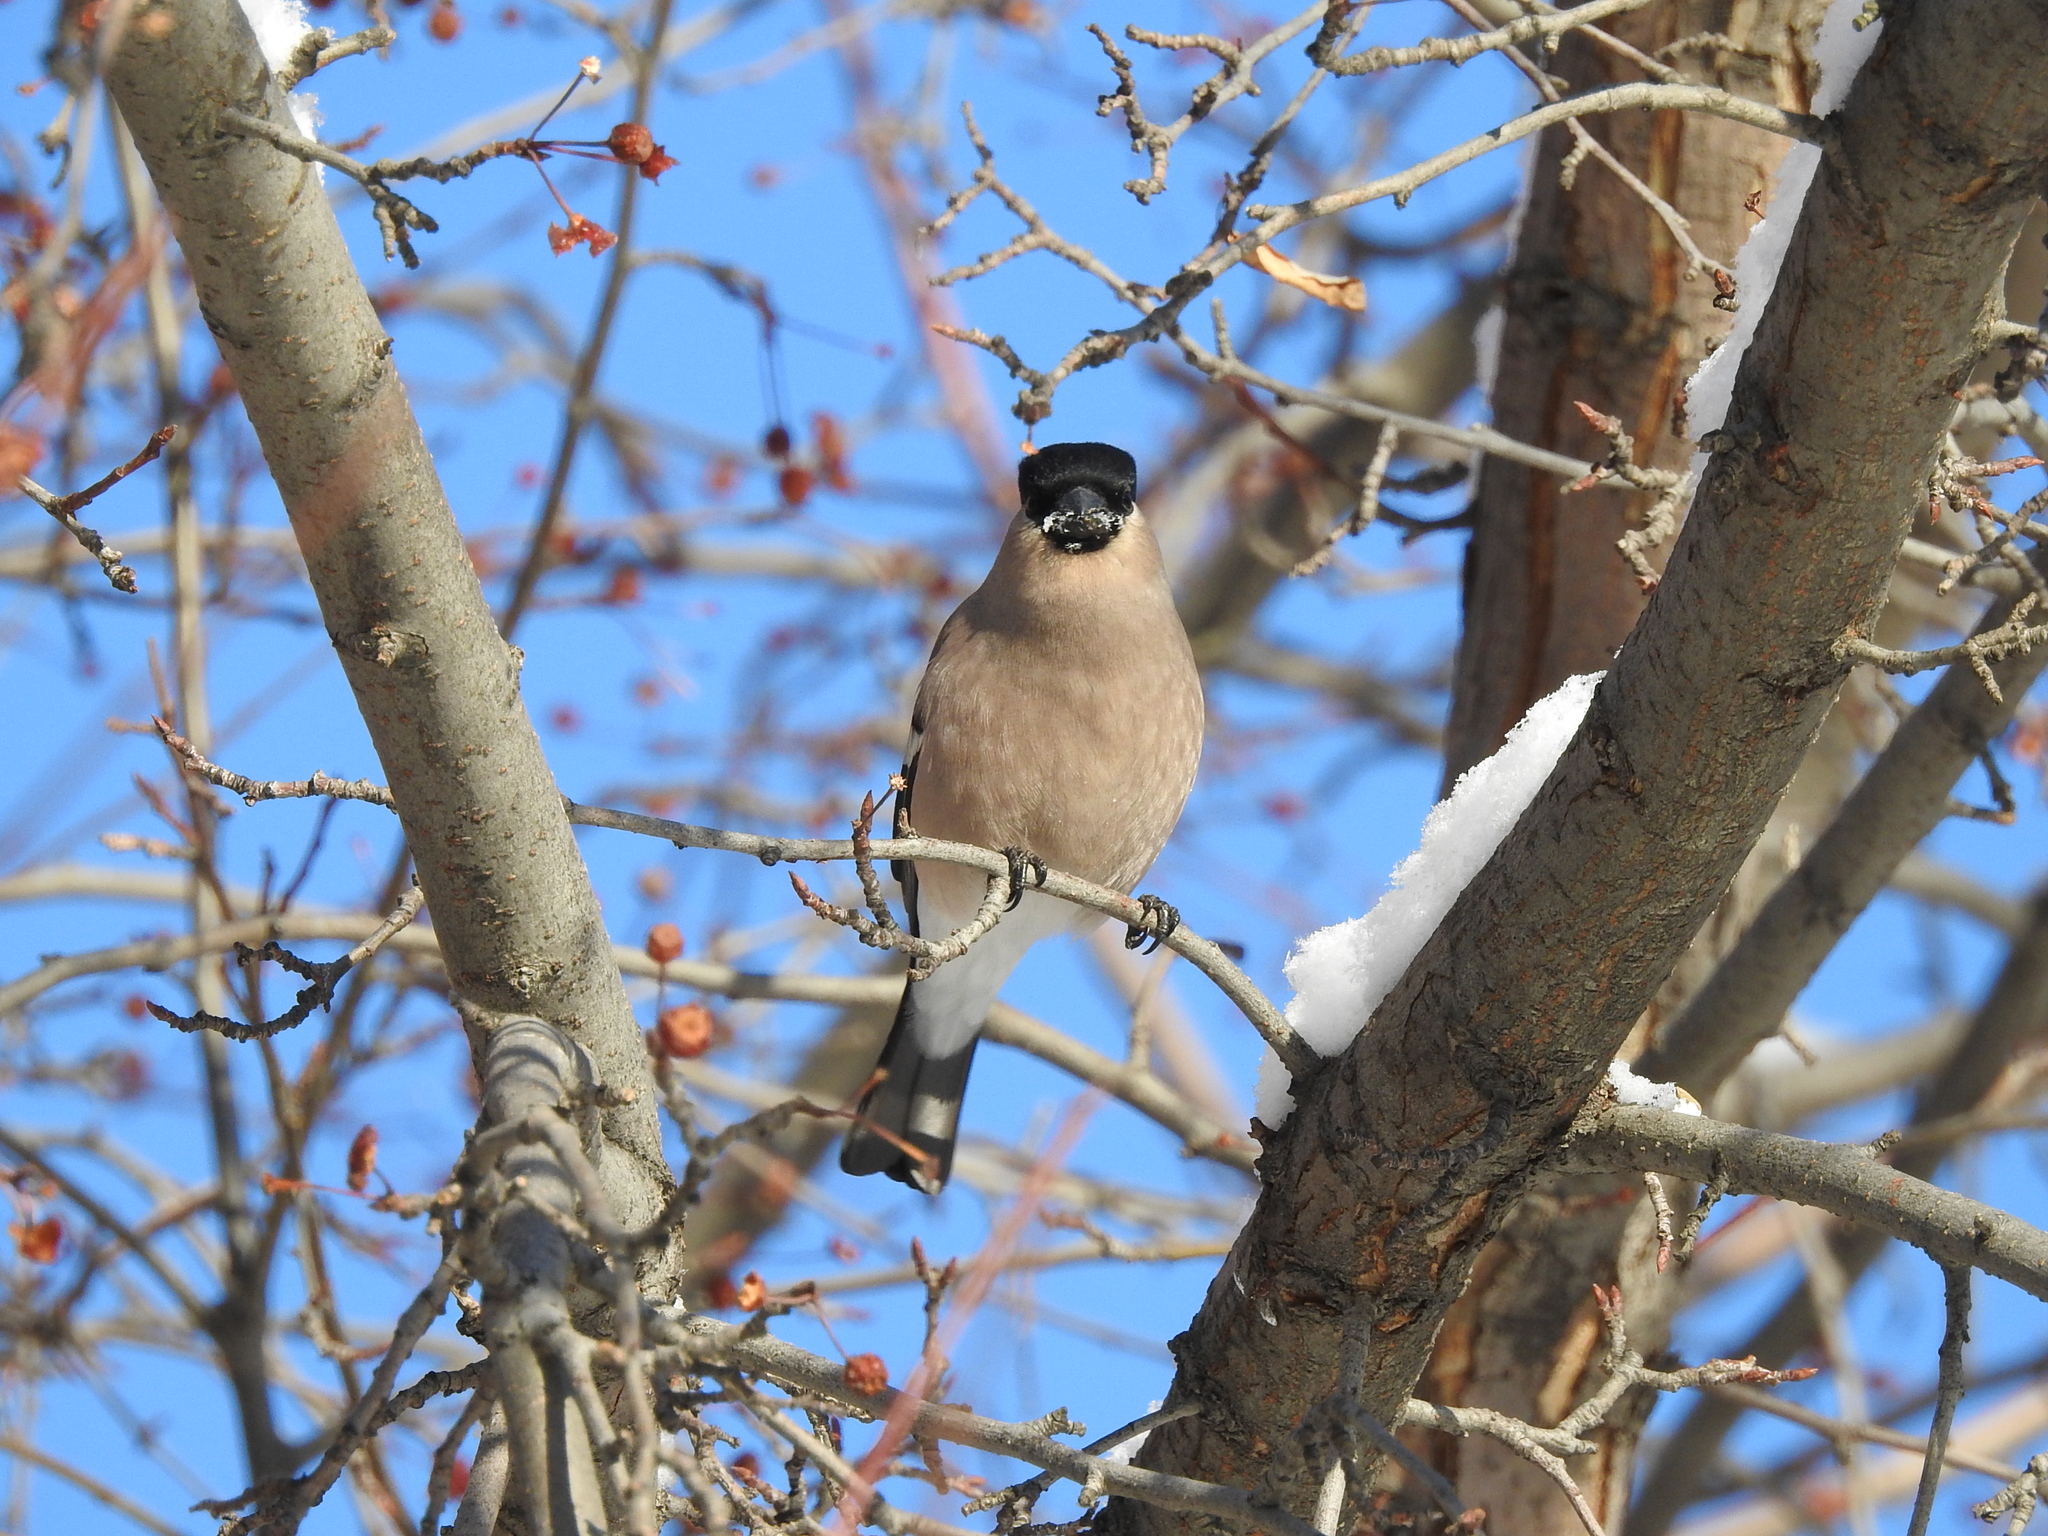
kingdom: Animalia
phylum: Chordata
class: Aves
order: Passeriformes
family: Fringillidae
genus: Pyrrhula
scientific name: Pyrrhula pyrrhula
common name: Eurasian bullfinch
